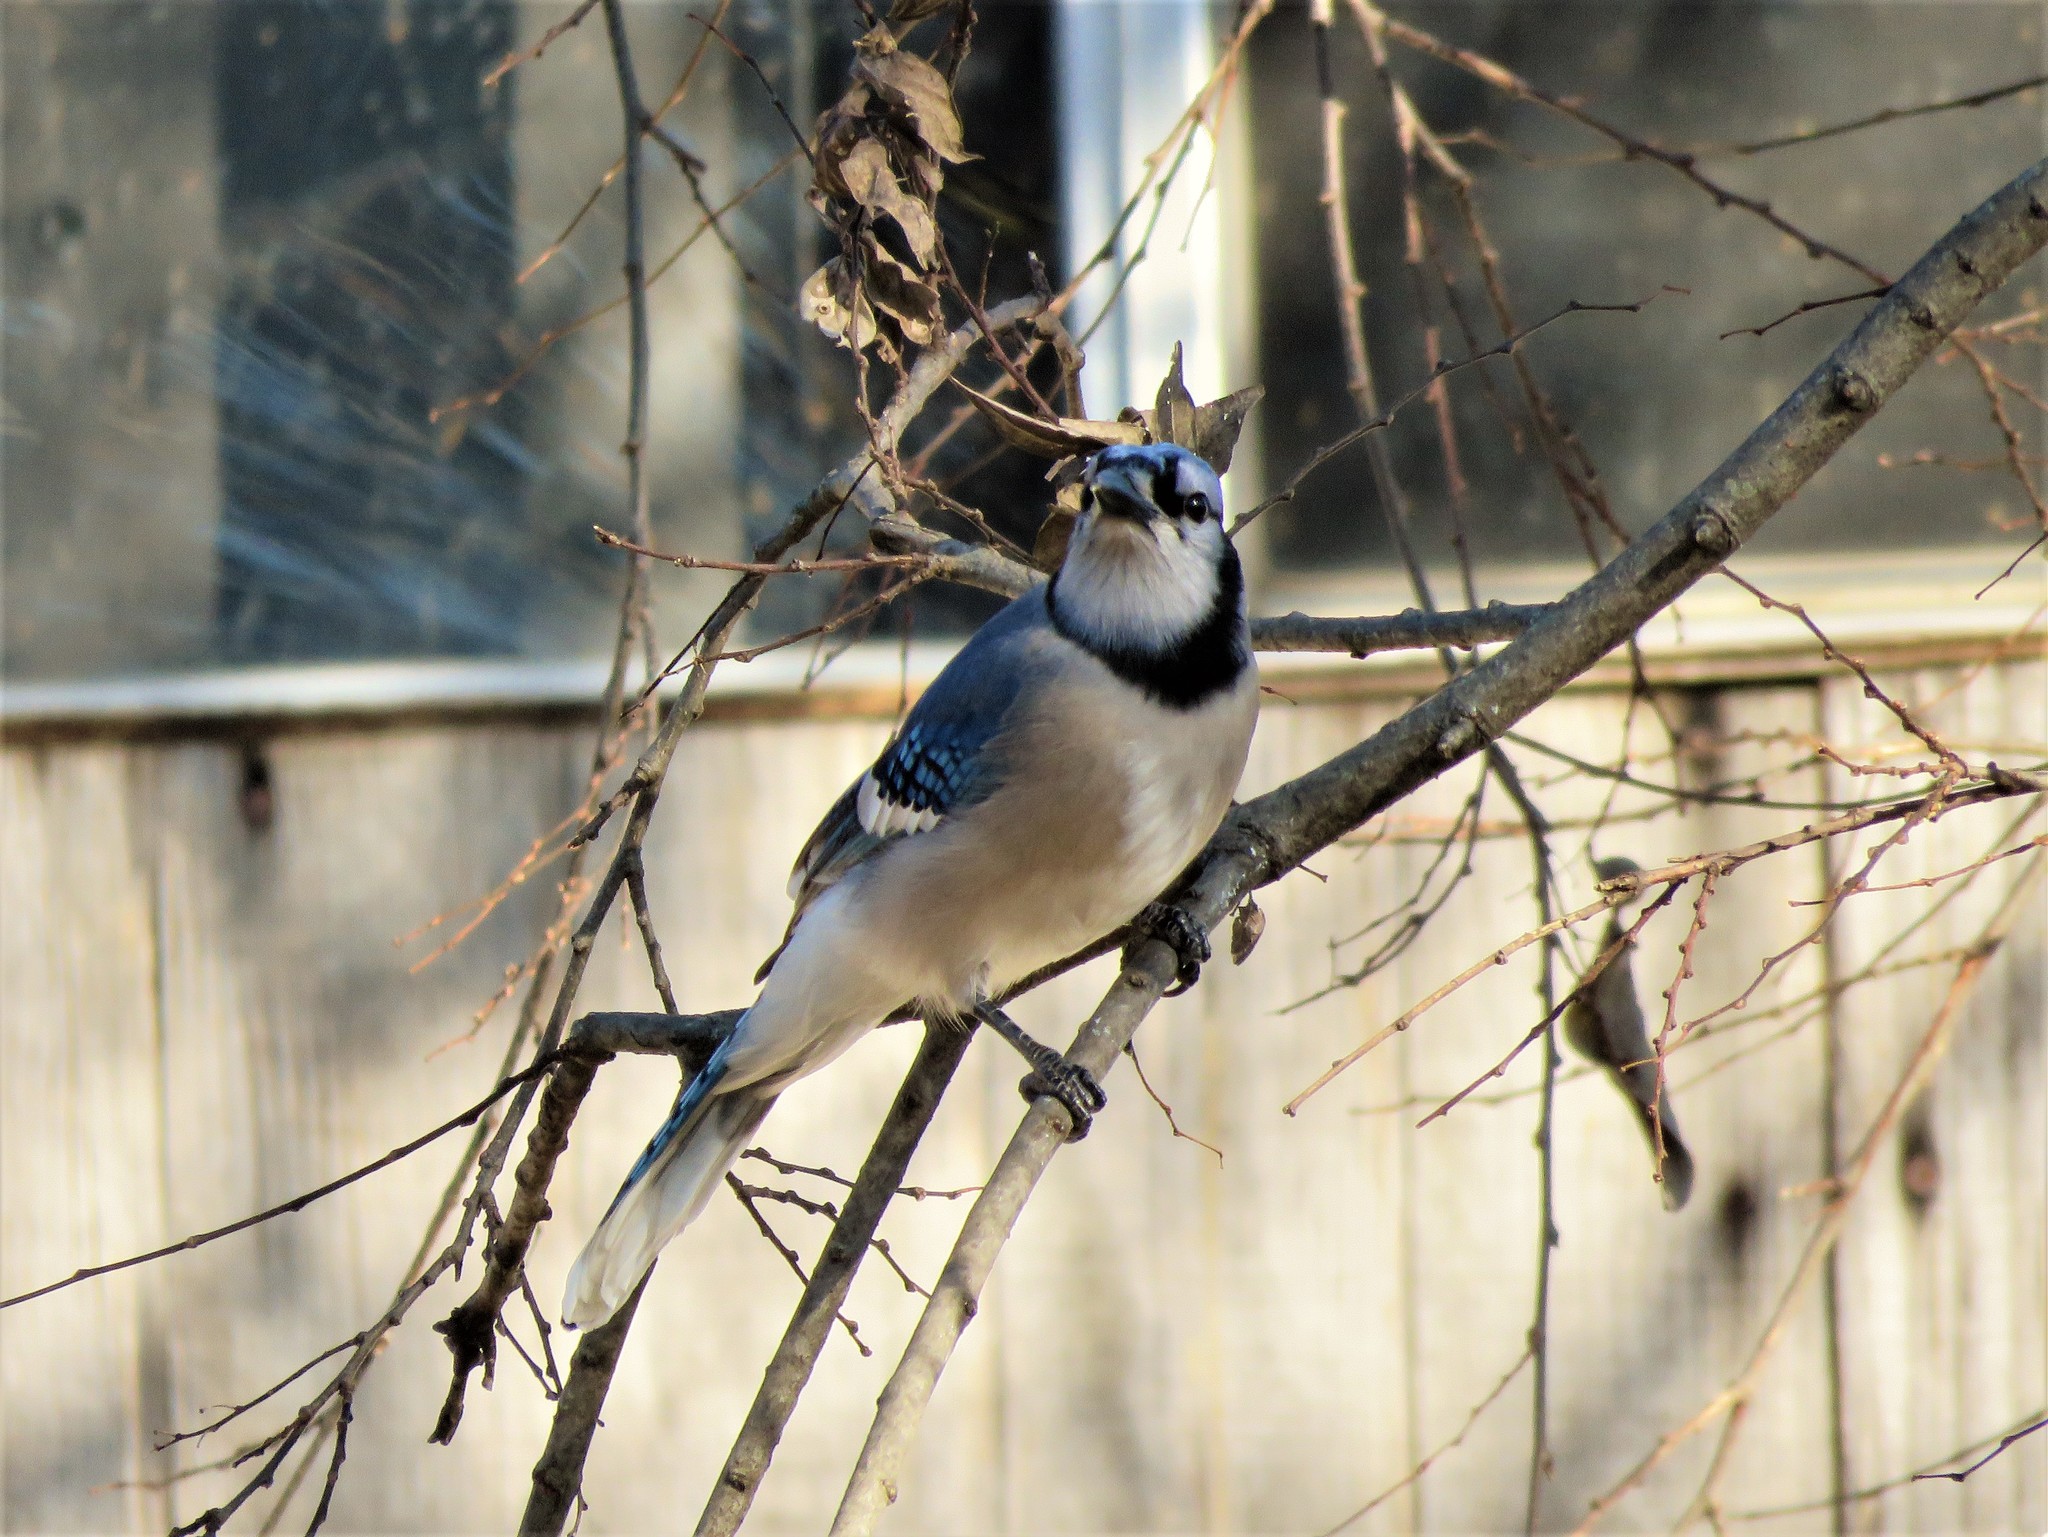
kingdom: Animalia
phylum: Chordata
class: Aves
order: Passeriformes
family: Corvidae
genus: Cyanocitta
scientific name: Cyanocitta cristata
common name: Blue jay
